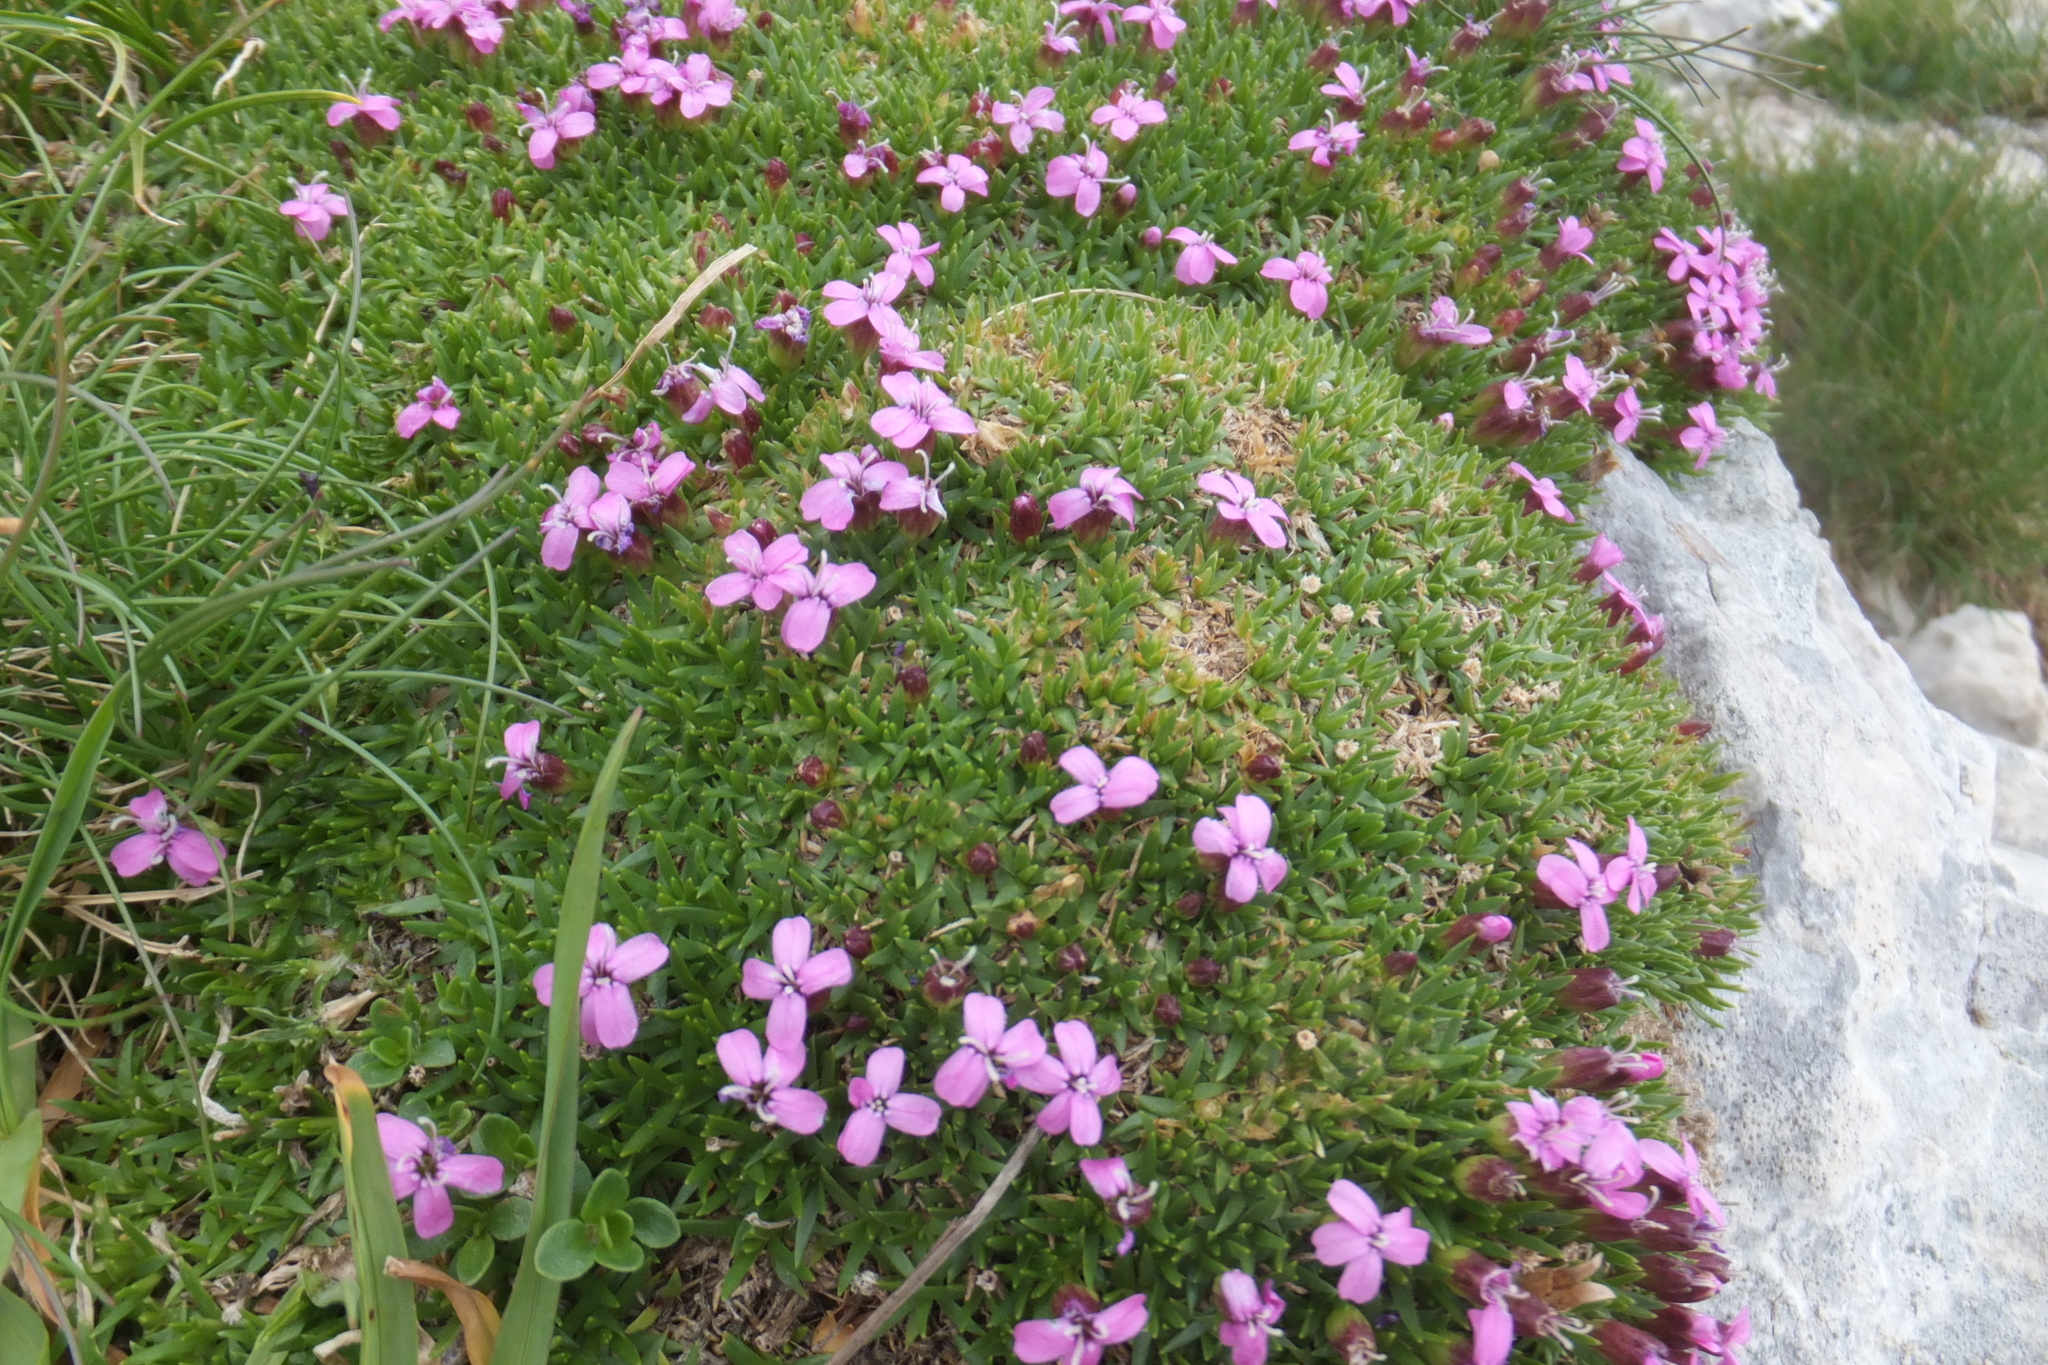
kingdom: Plantae
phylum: Tracheophyta
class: Magnoliopsida
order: Caryophyllales
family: Caryophyllaceae
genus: Silene
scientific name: Silene acaulis
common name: Moss campion
